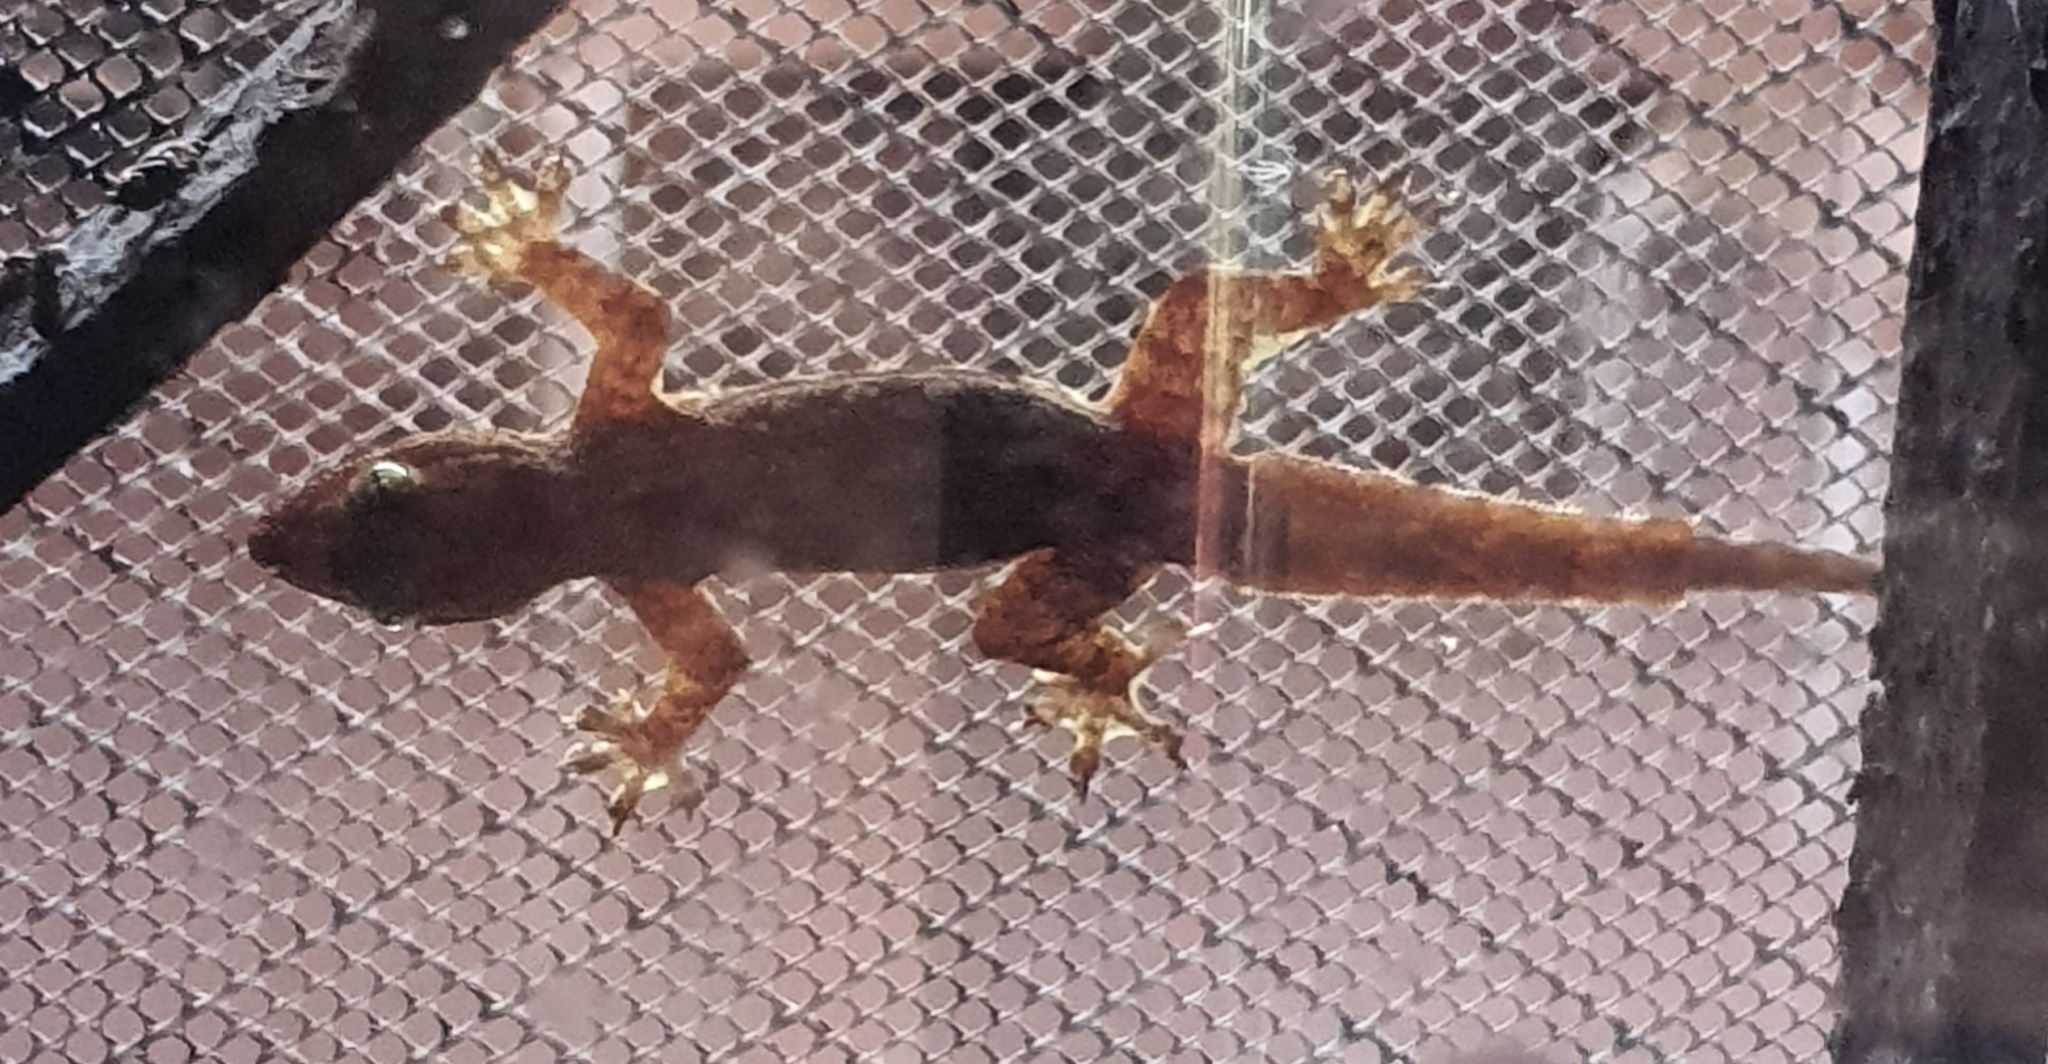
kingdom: Animalia
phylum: Chordata
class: Squamata
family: Gekkonidae
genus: Hemidactylus
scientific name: Hemidactylus platyurus
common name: Flat-tailed house gecko
